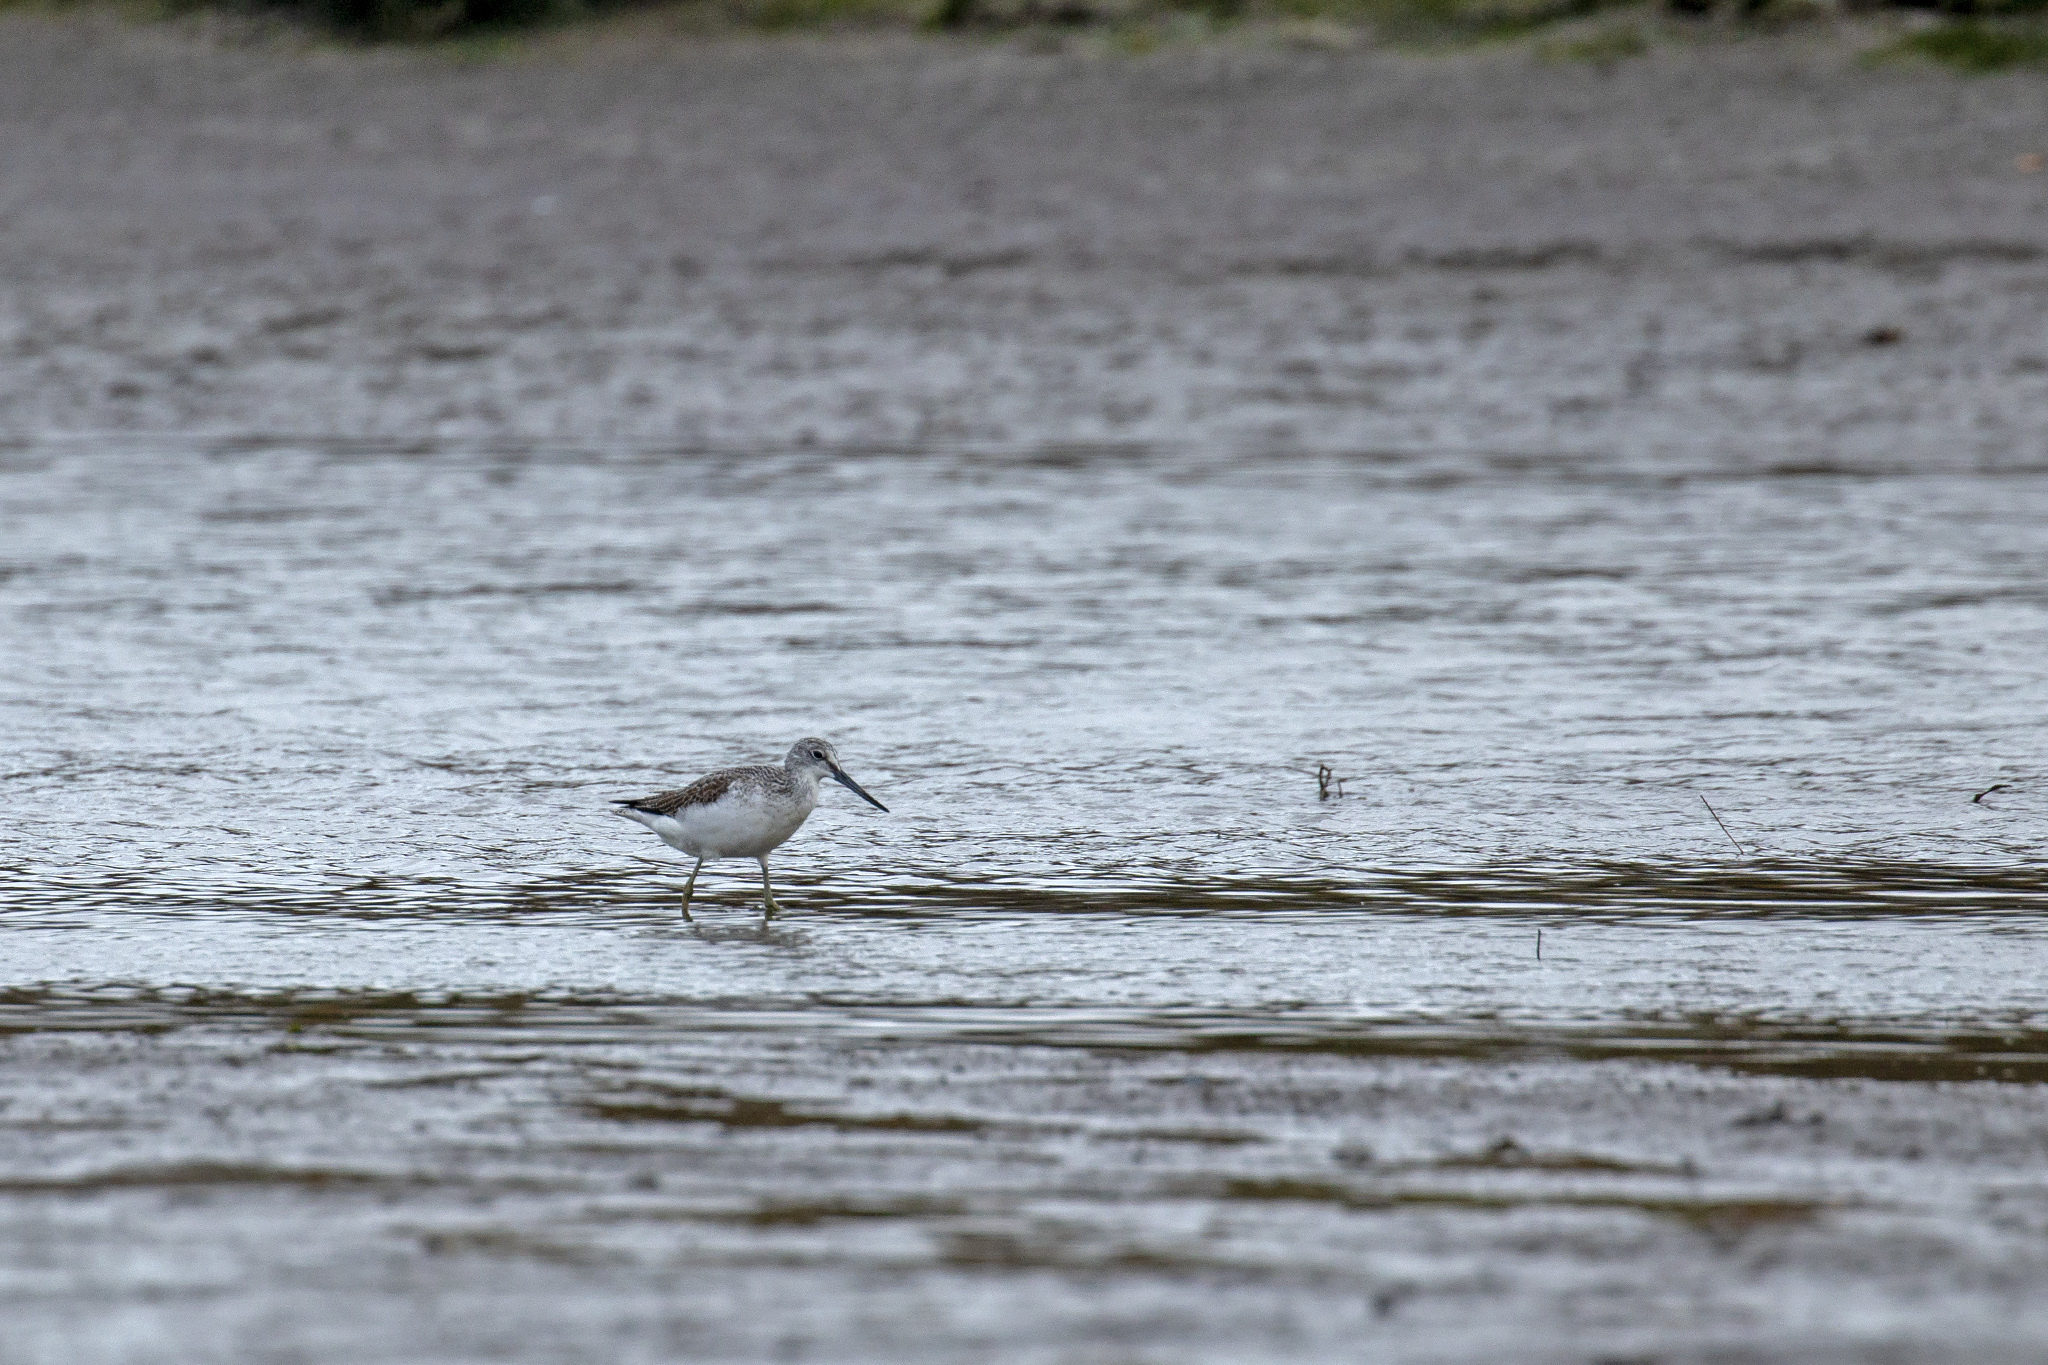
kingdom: Animalia
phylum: Chordata
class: Aves
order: Charadriiformes
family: Scolopacidae
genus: Tringa
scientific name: Tringa nebularia
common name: Common greenshank
